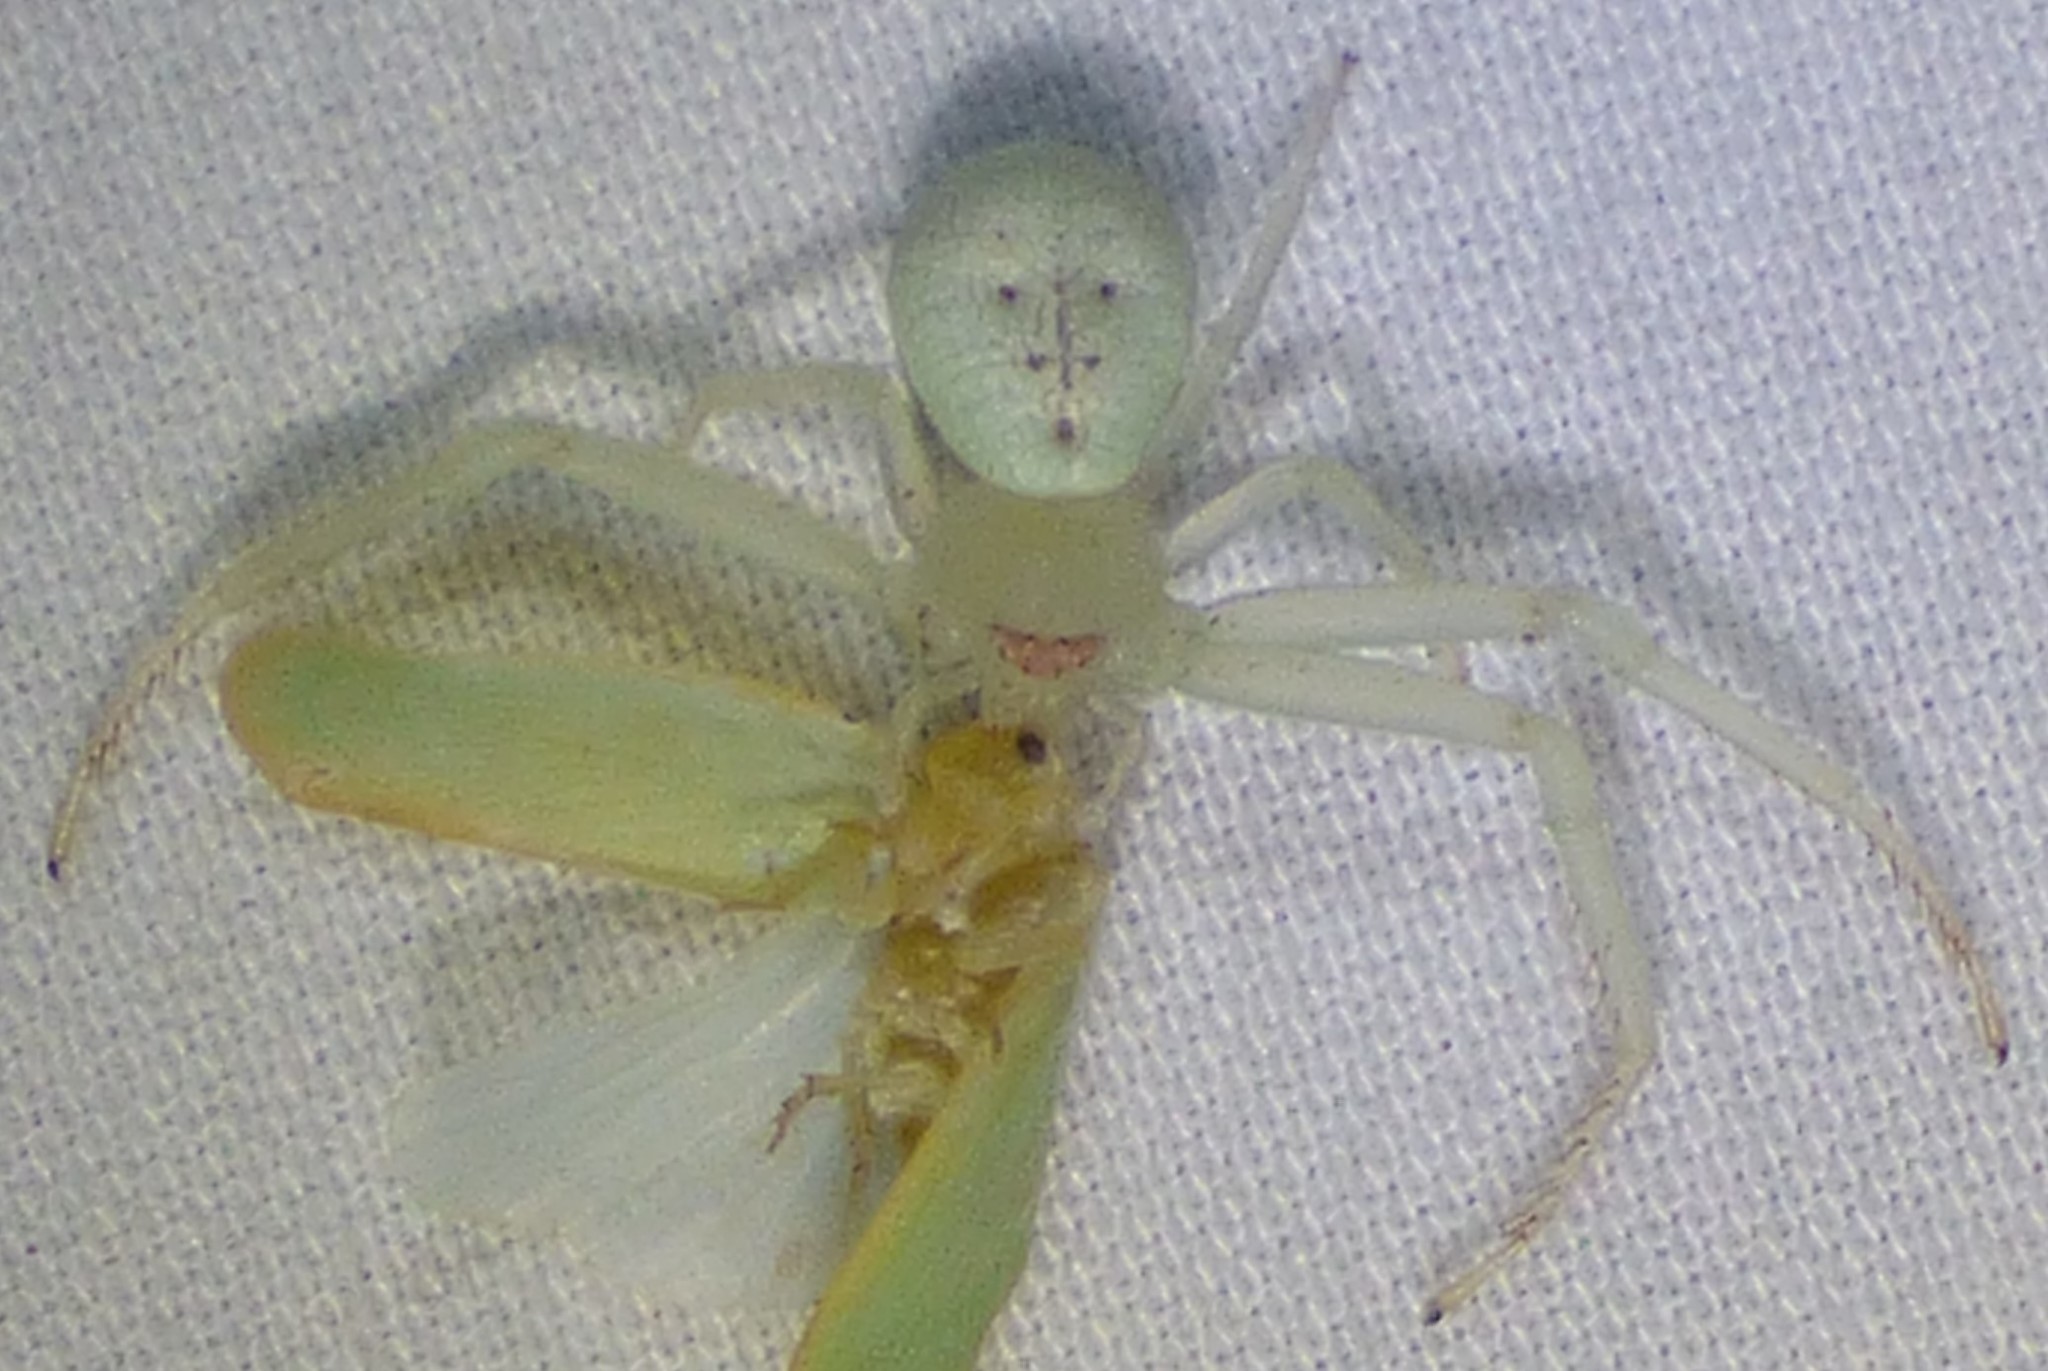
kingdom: Animalia
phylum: Arthropoda
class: Arachnida
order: Araneae
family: Thomisidae
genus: Misumessus
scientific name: Misumessus oblongus
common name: American green crab spider
